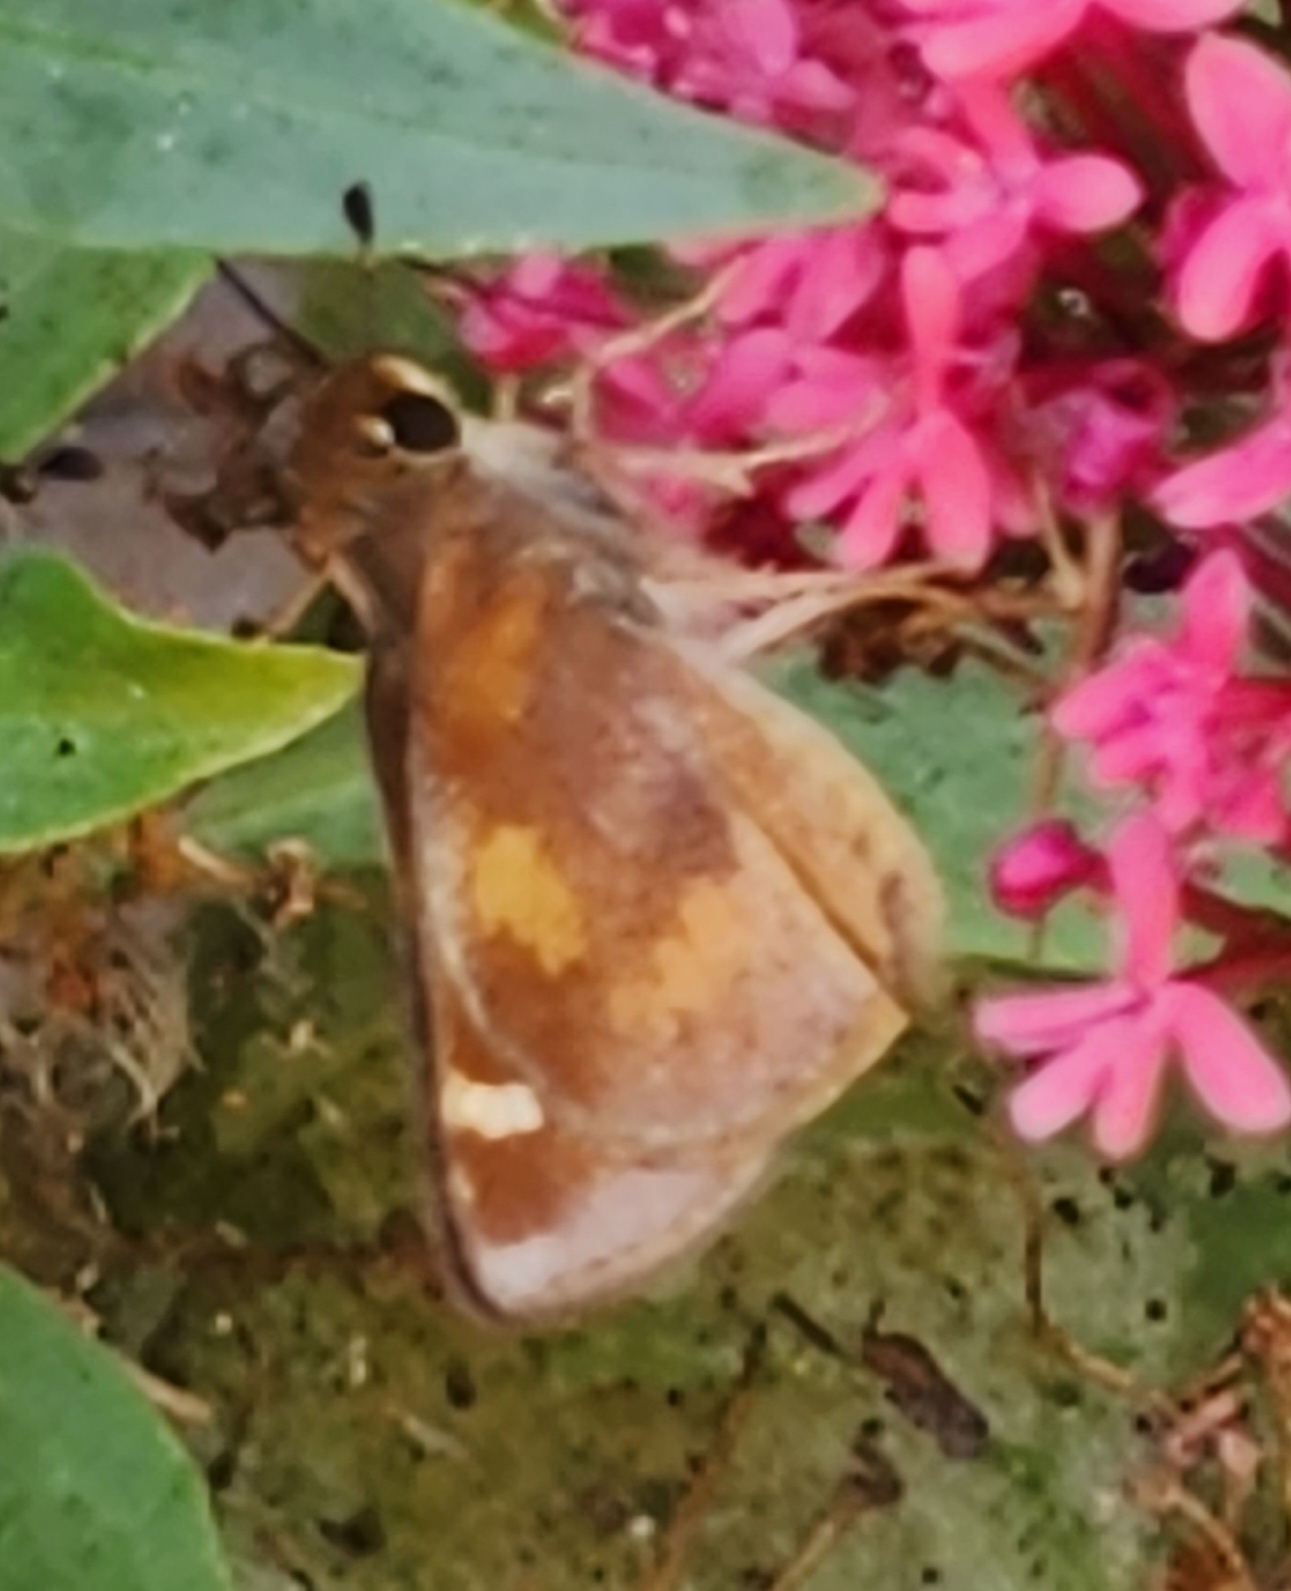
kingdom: Animalia
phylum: Arthropoda
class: Insecta
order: Lepidoptera
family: Hesperiidae
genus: Lon
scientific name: Lon melane
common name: Umber skipper
